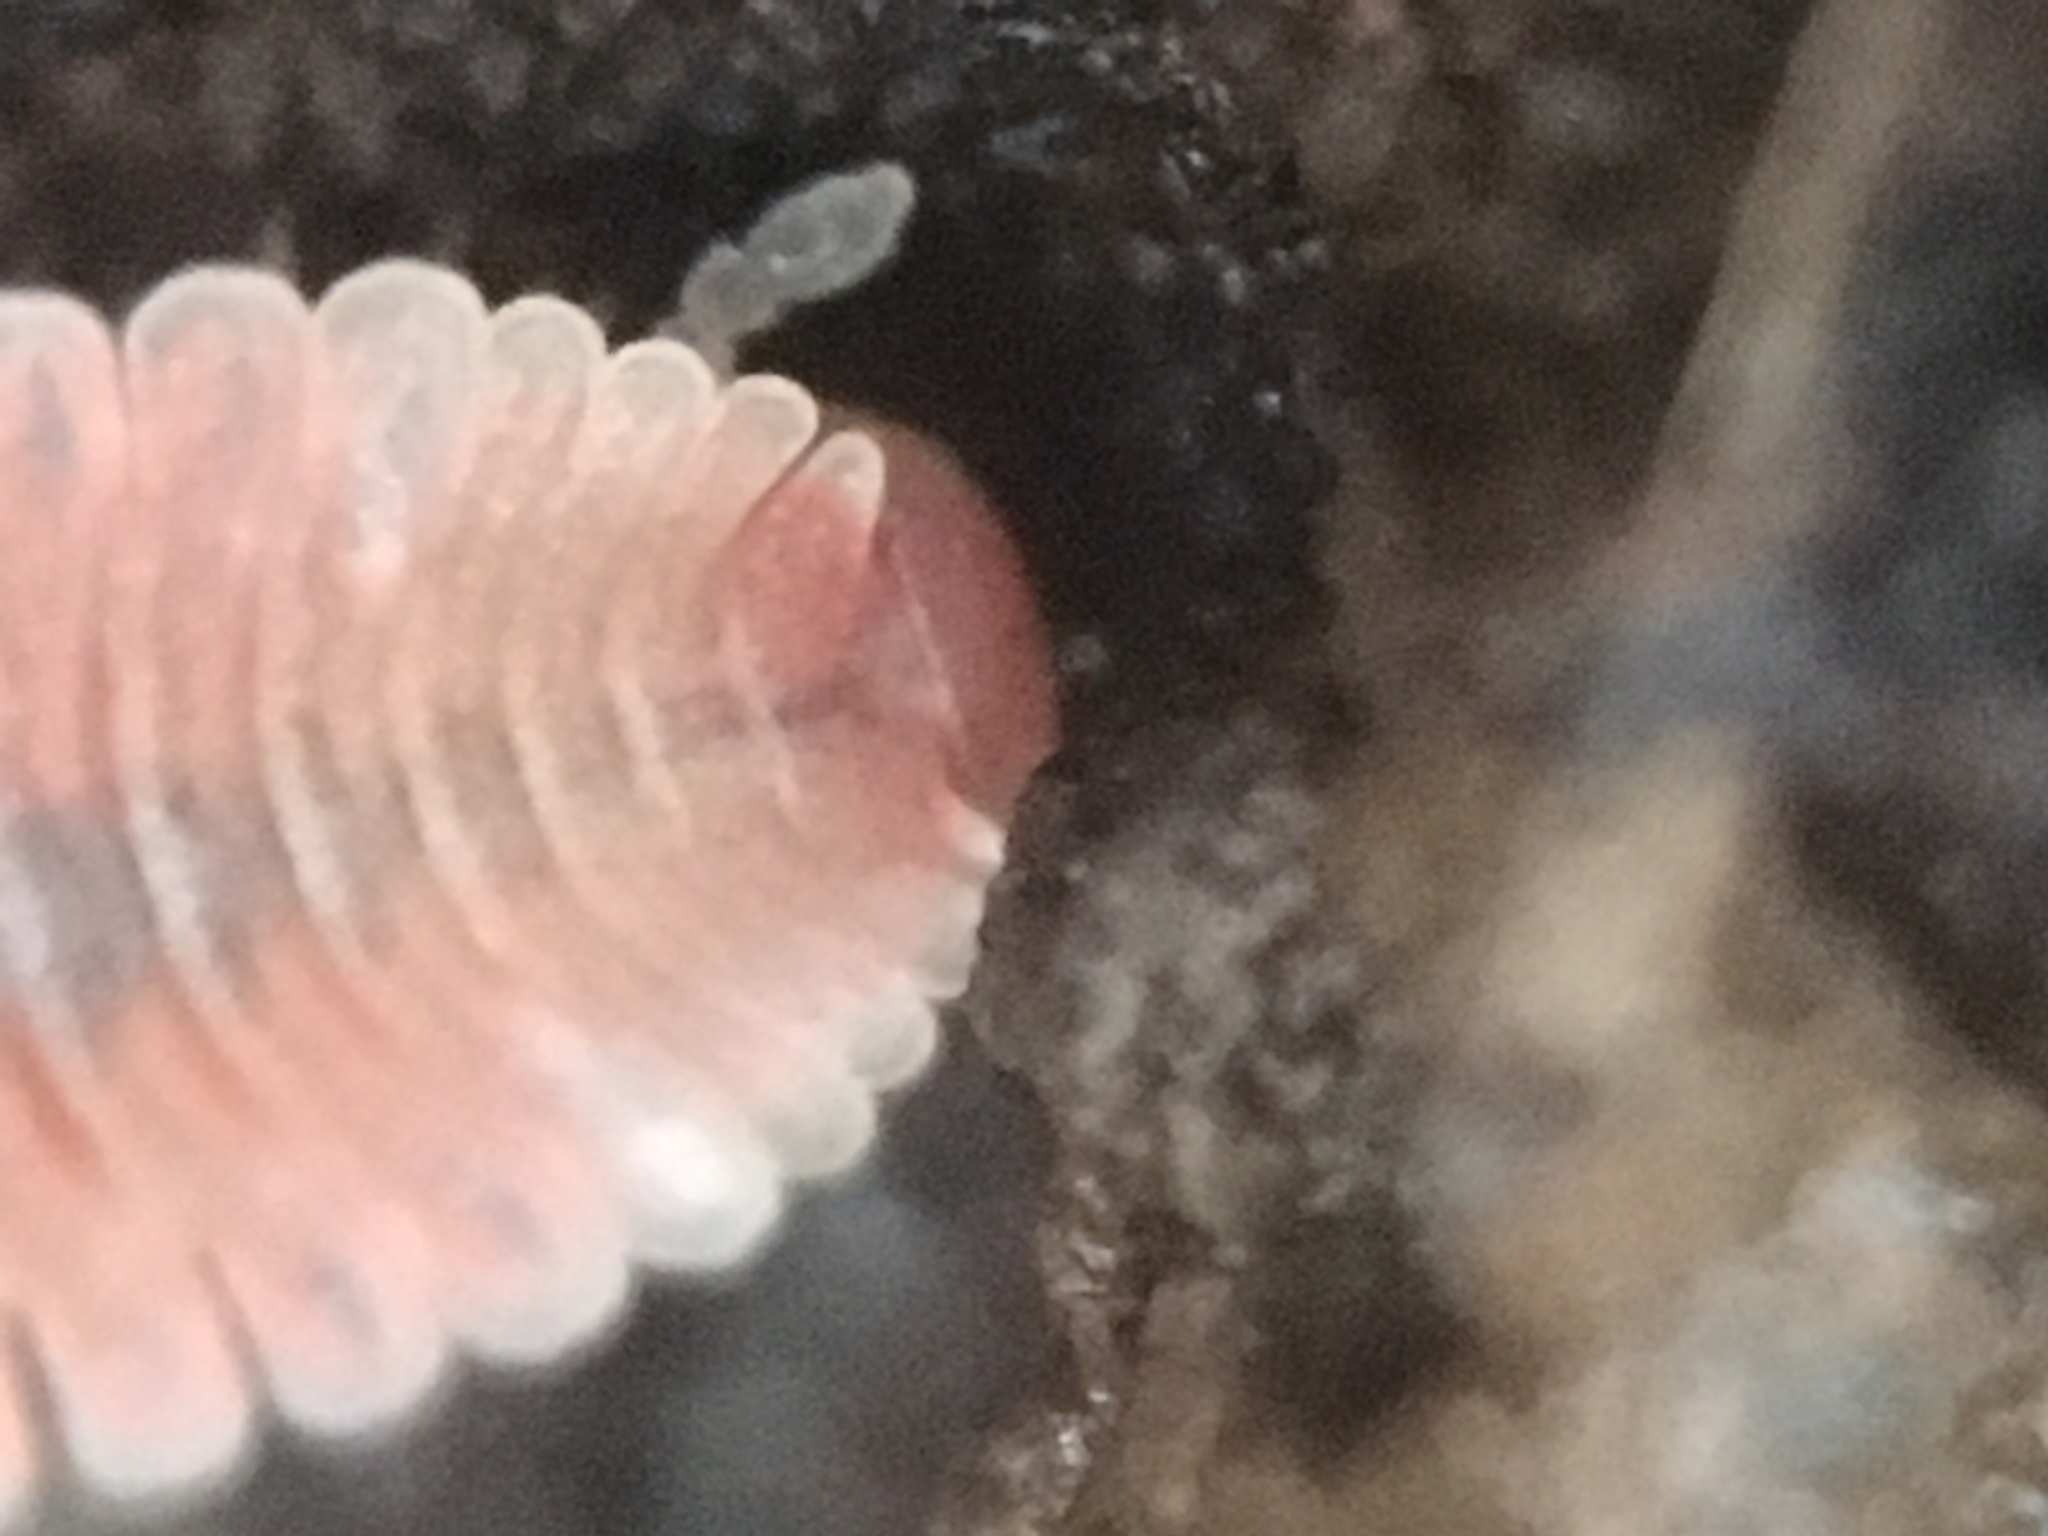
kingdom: Animalia
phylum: Arthropoda
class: Diplopoda
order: Platydesmida
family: Andrognathidae
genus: Brachycybe
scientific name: Brachycybe producta
